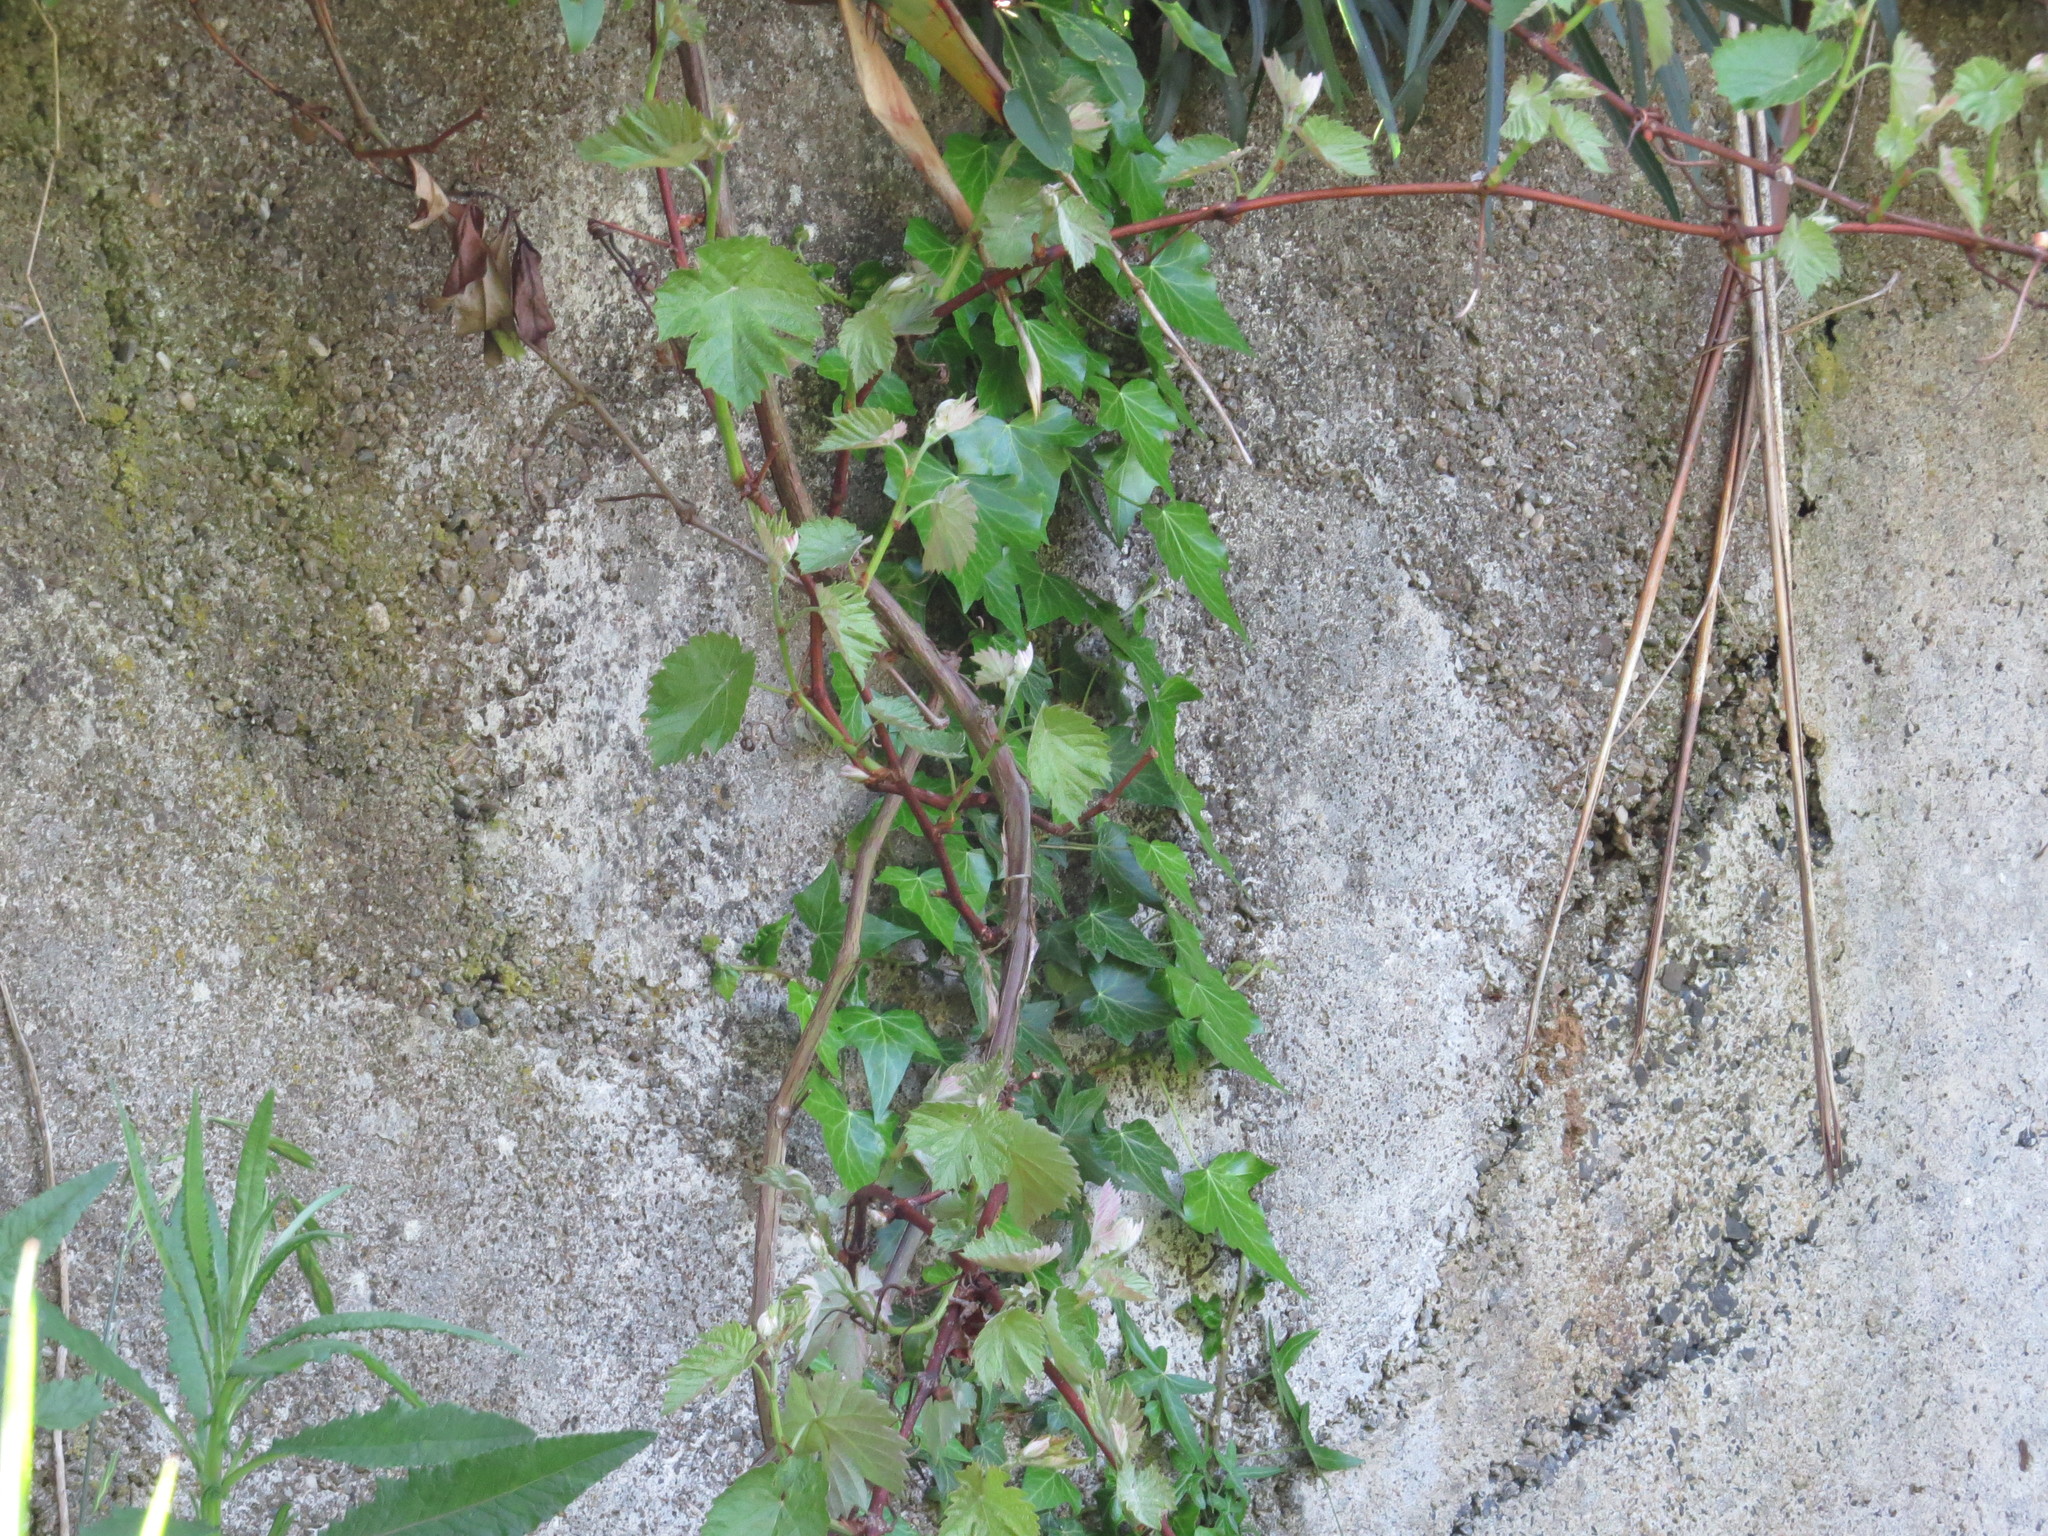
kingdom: Plantae
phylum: Tracheophyta
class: Magnoliopsida
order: Apiales
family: Araliaceae
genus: Hedera
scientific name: Hedera helix
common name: Ivy
